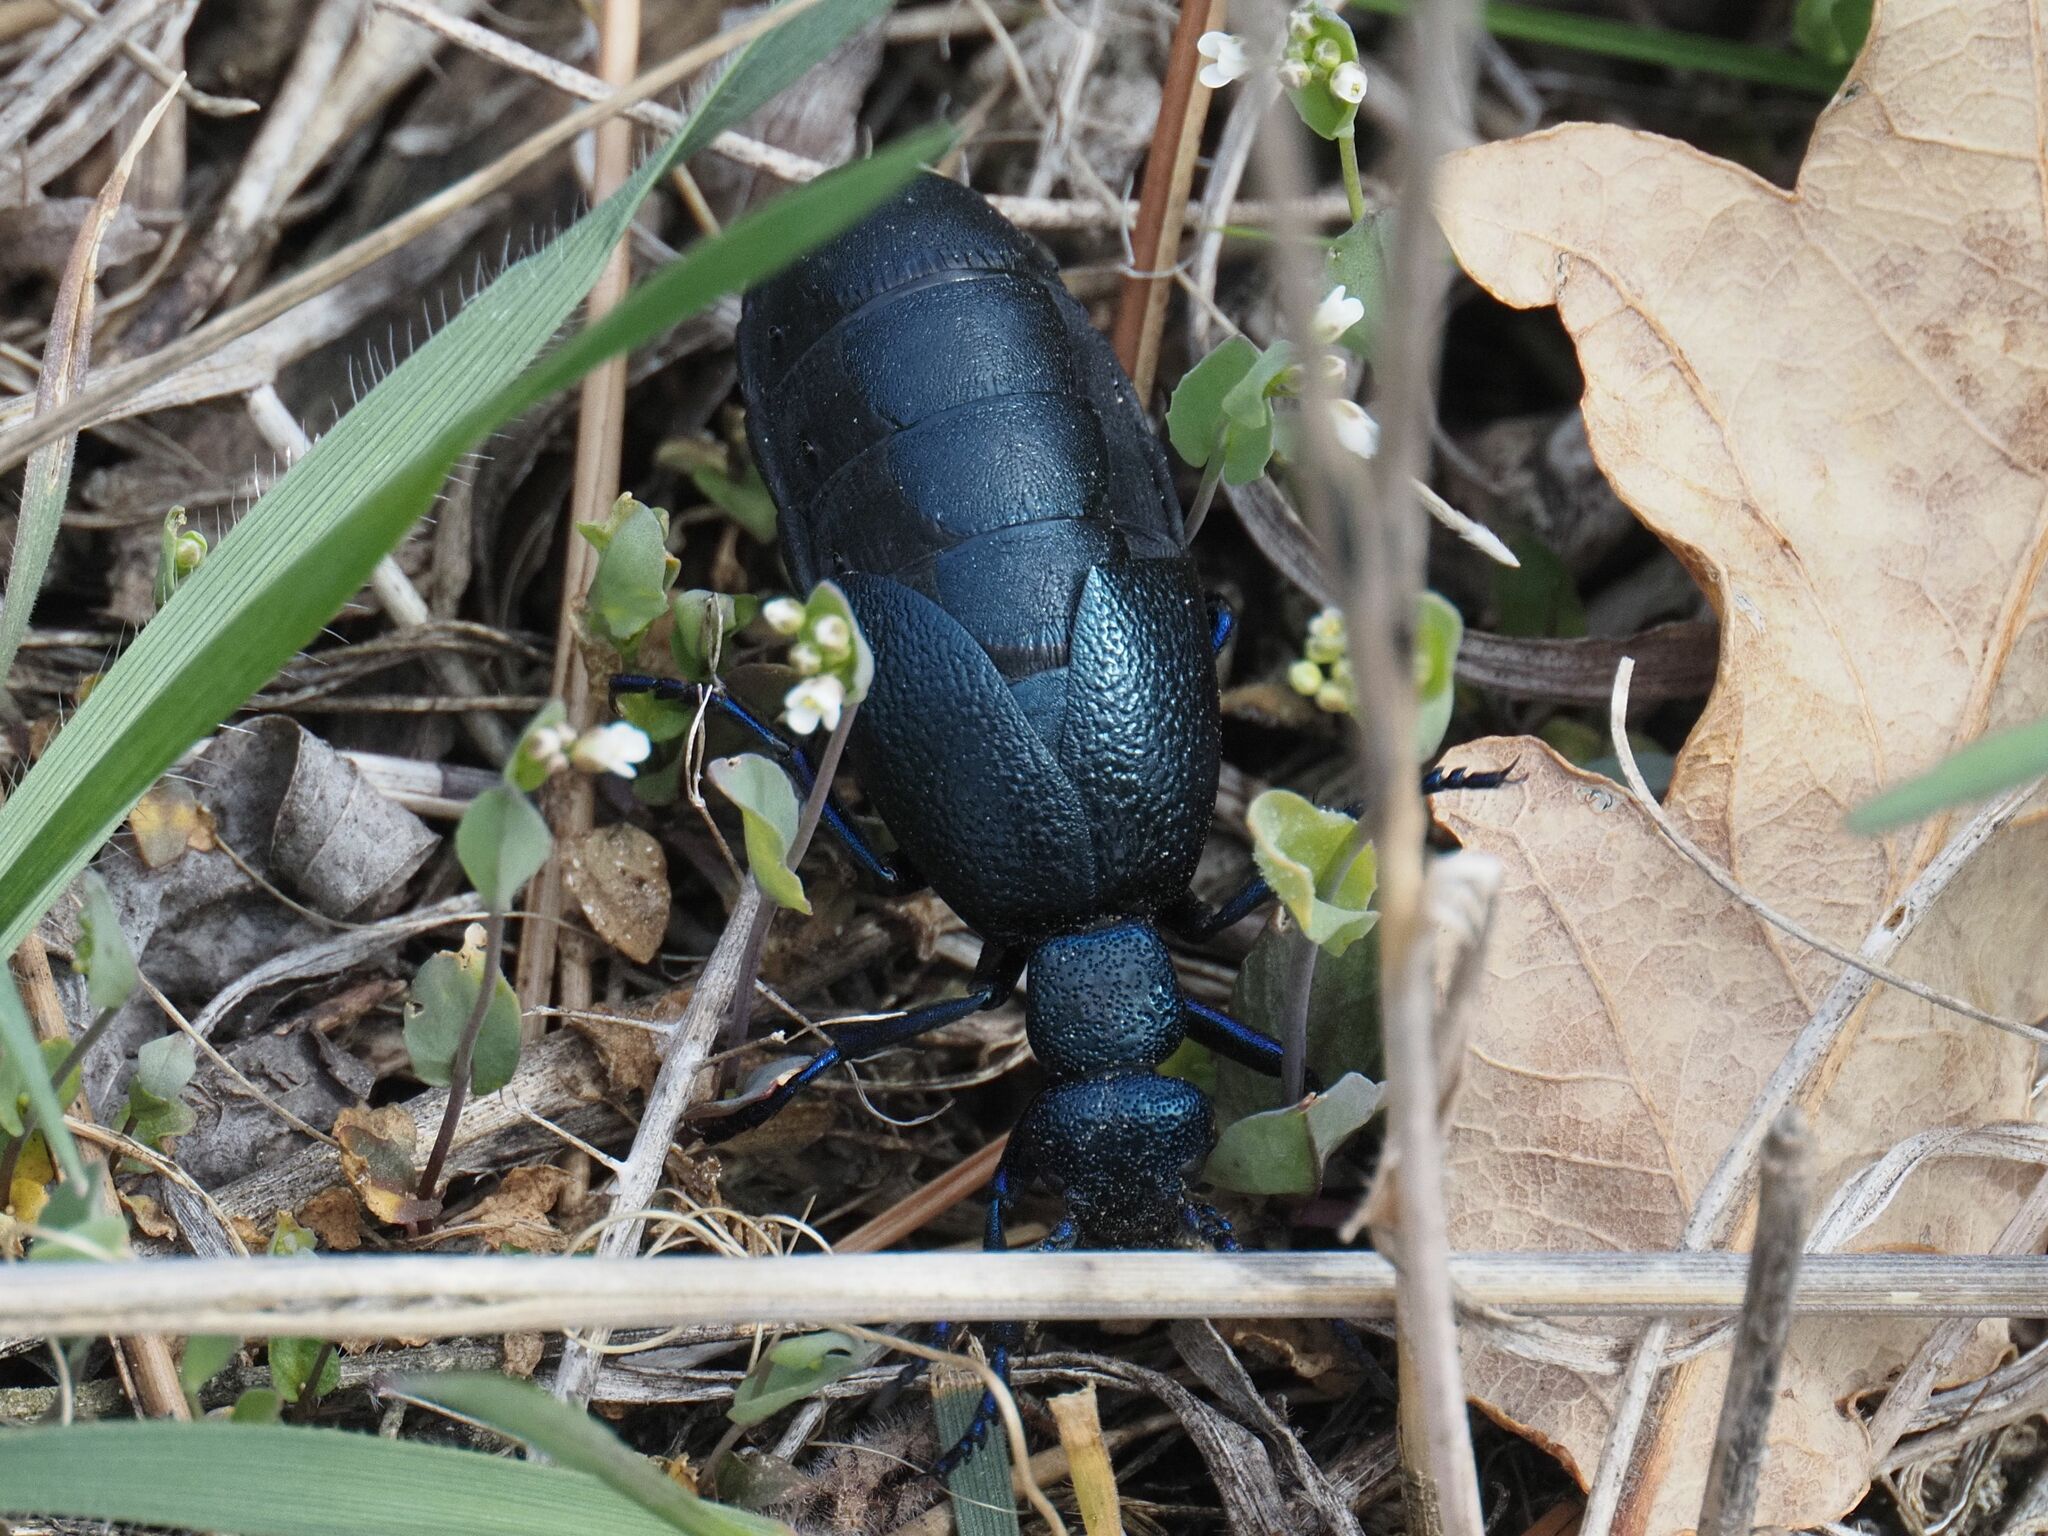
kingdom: Animalia
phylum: Arthropoda
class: Insecta
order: Coleoptera
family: Meloidae
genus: Meloe
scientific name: Meloe proscarabaeus
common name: Black oil-beetle
